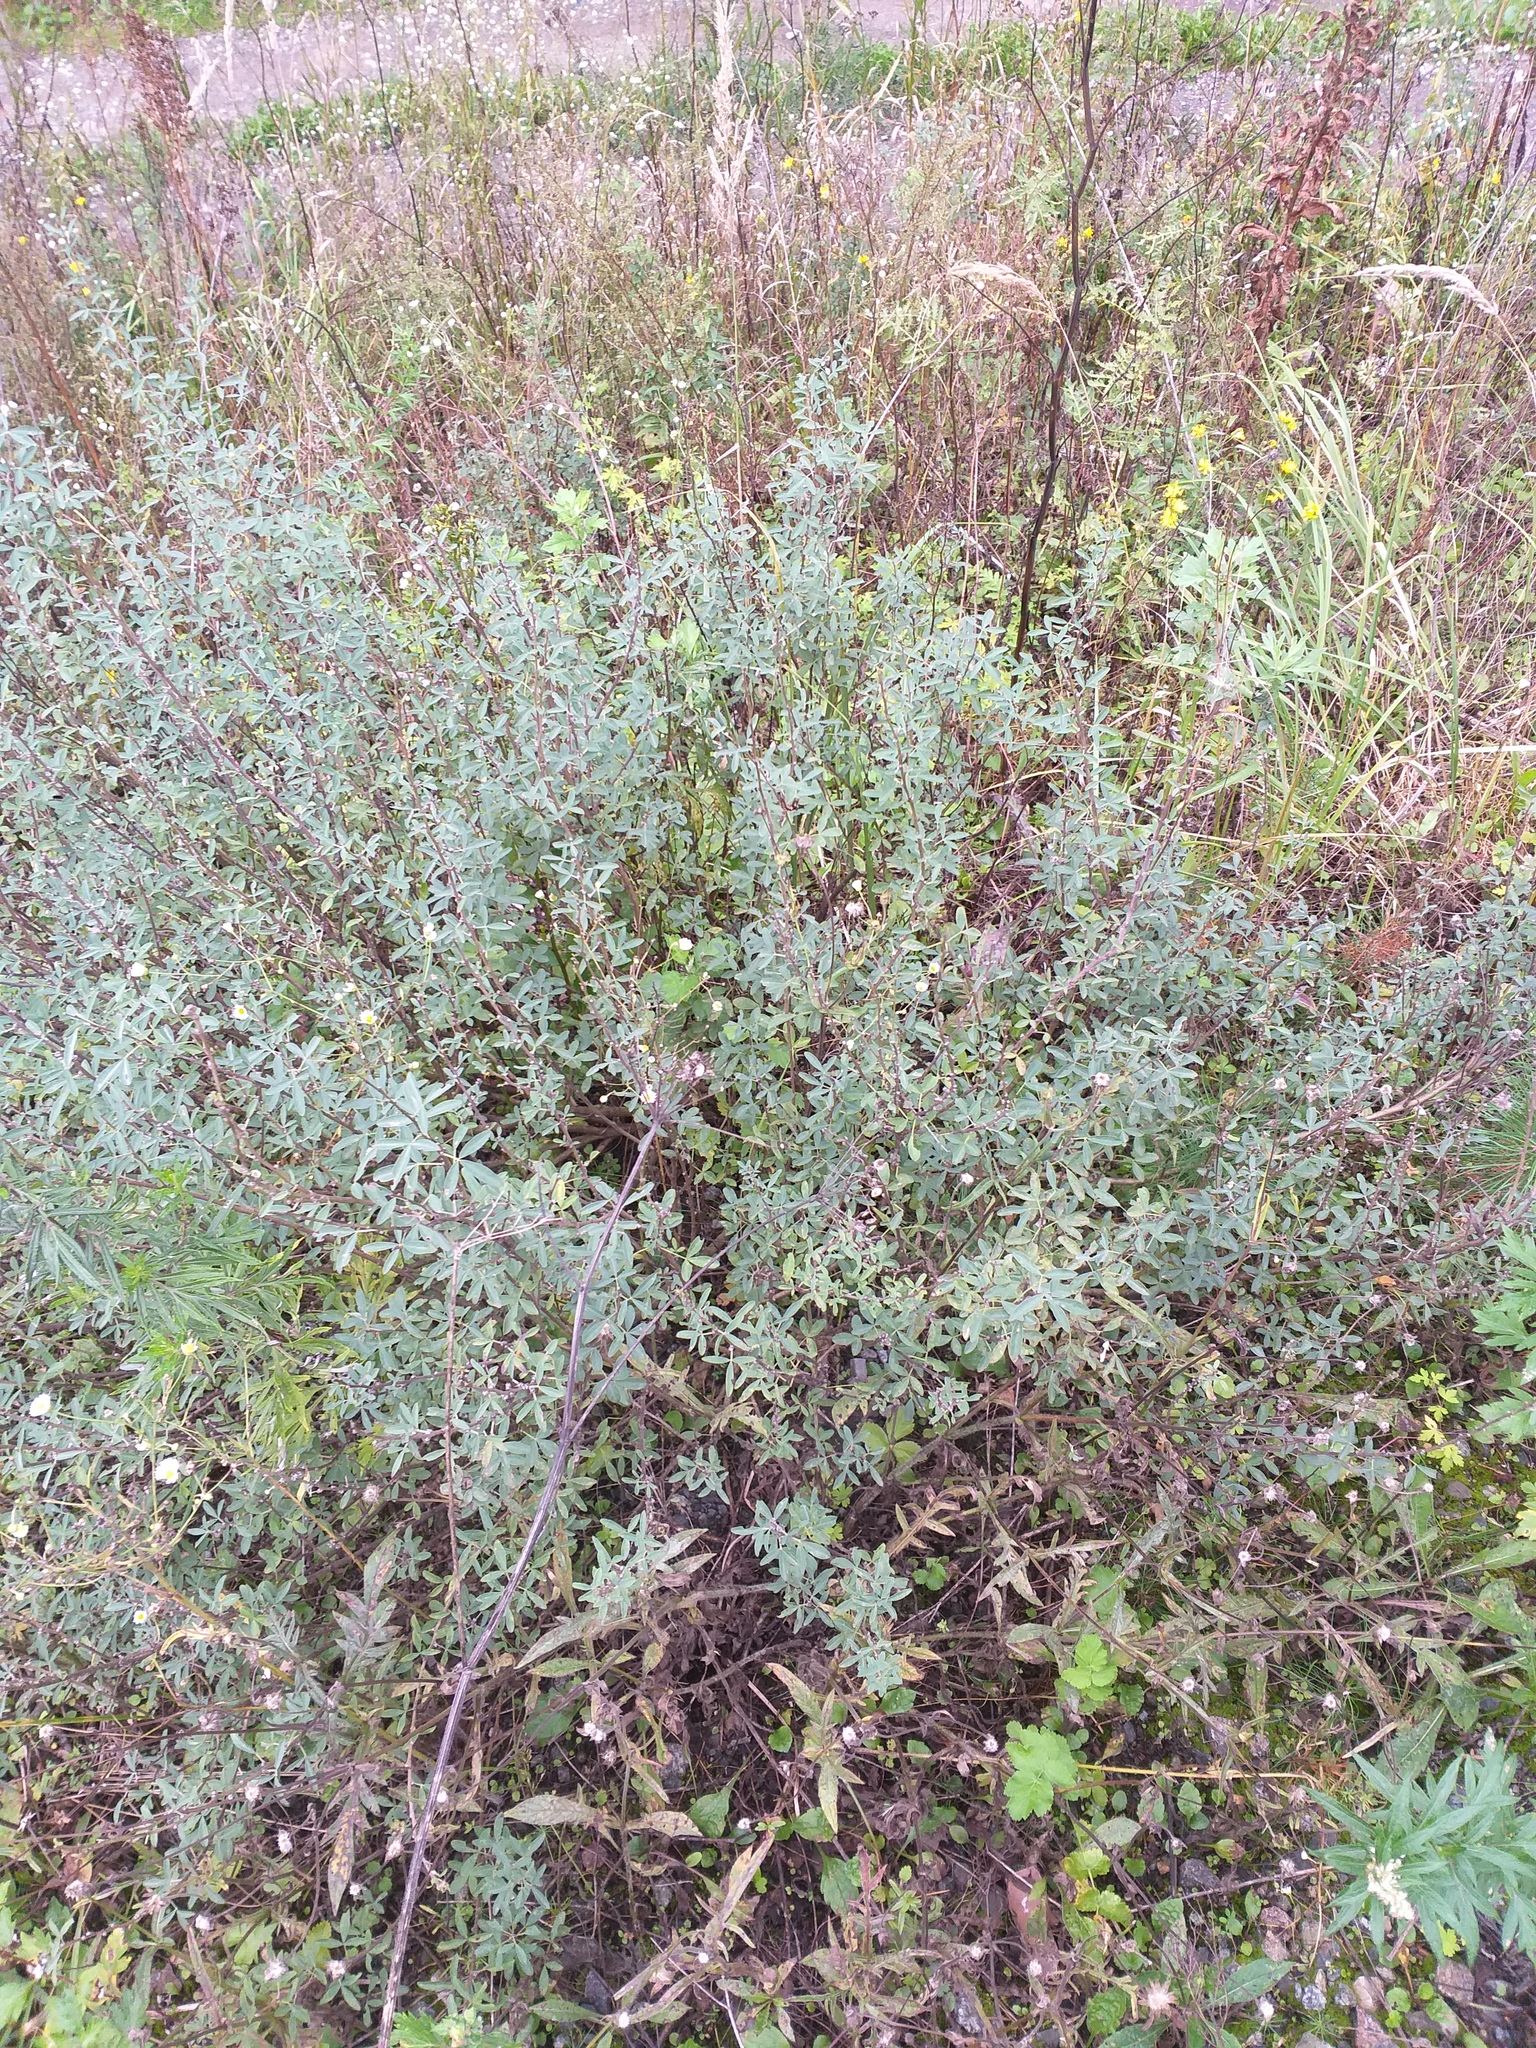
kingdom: Plantae
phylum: Tracheophyta
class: Magnoliopsida
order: Fabales
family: Fabaceae
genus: Chamaecytisus
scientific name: Chamaecytisus ruthenicus
